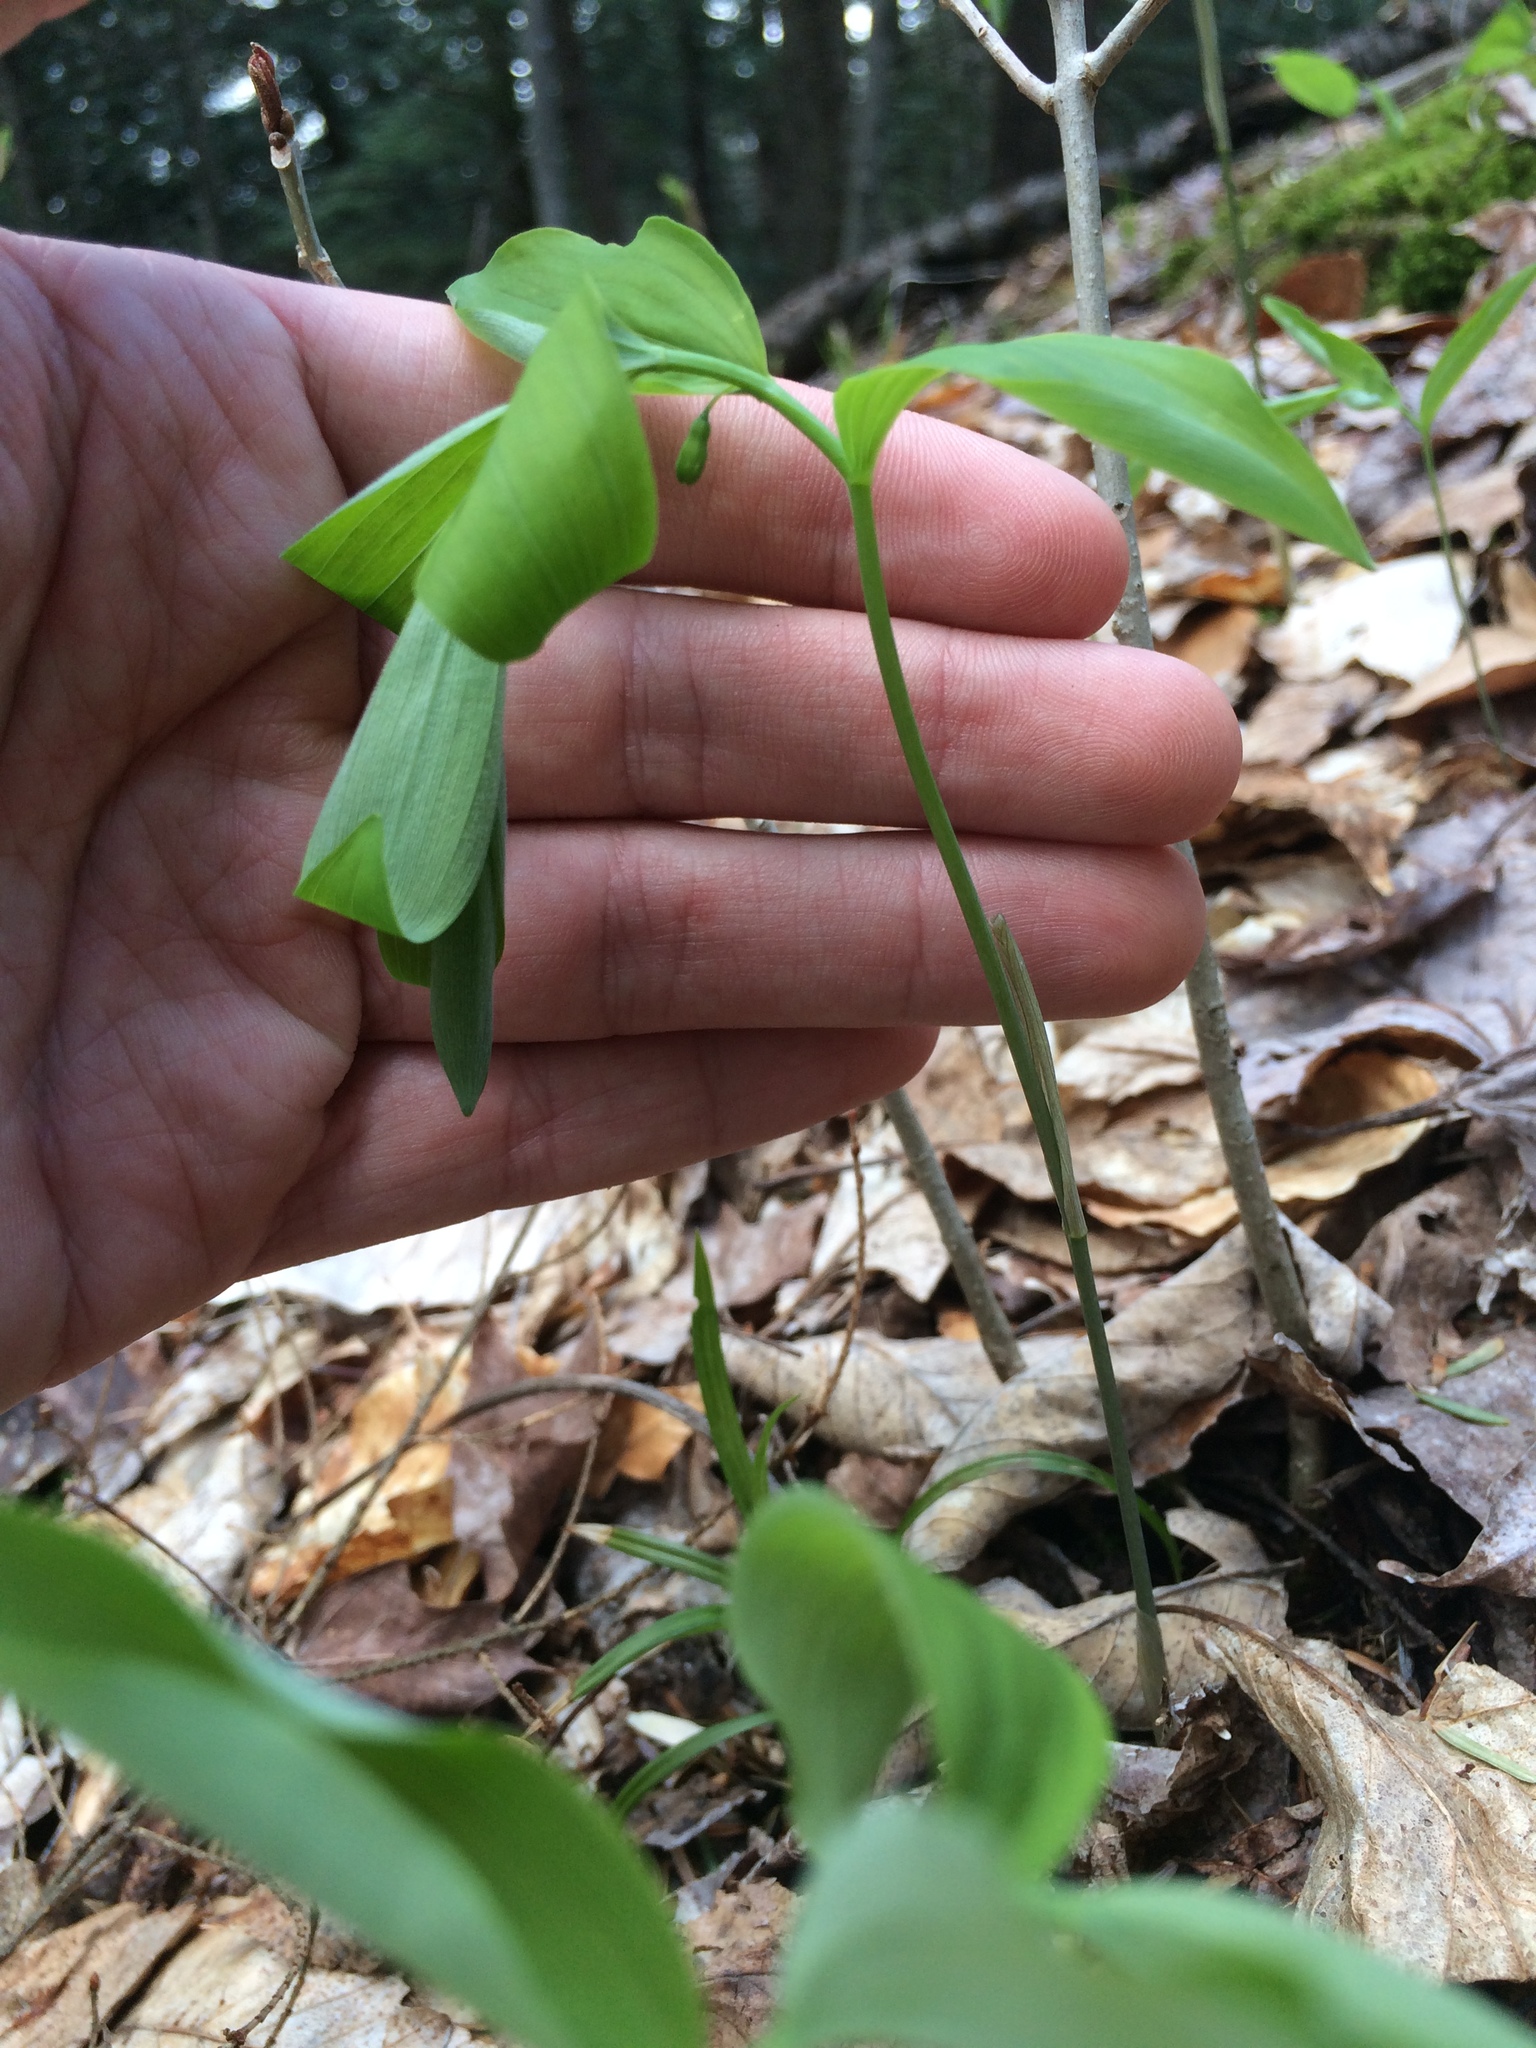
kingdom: Plantae
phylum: Tracheophyta
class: Liliopsida
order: Asparagales
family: Asparagaceae
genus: Polygonatum
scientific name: Polygonatum pubescens
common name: Downy solomon's seal
